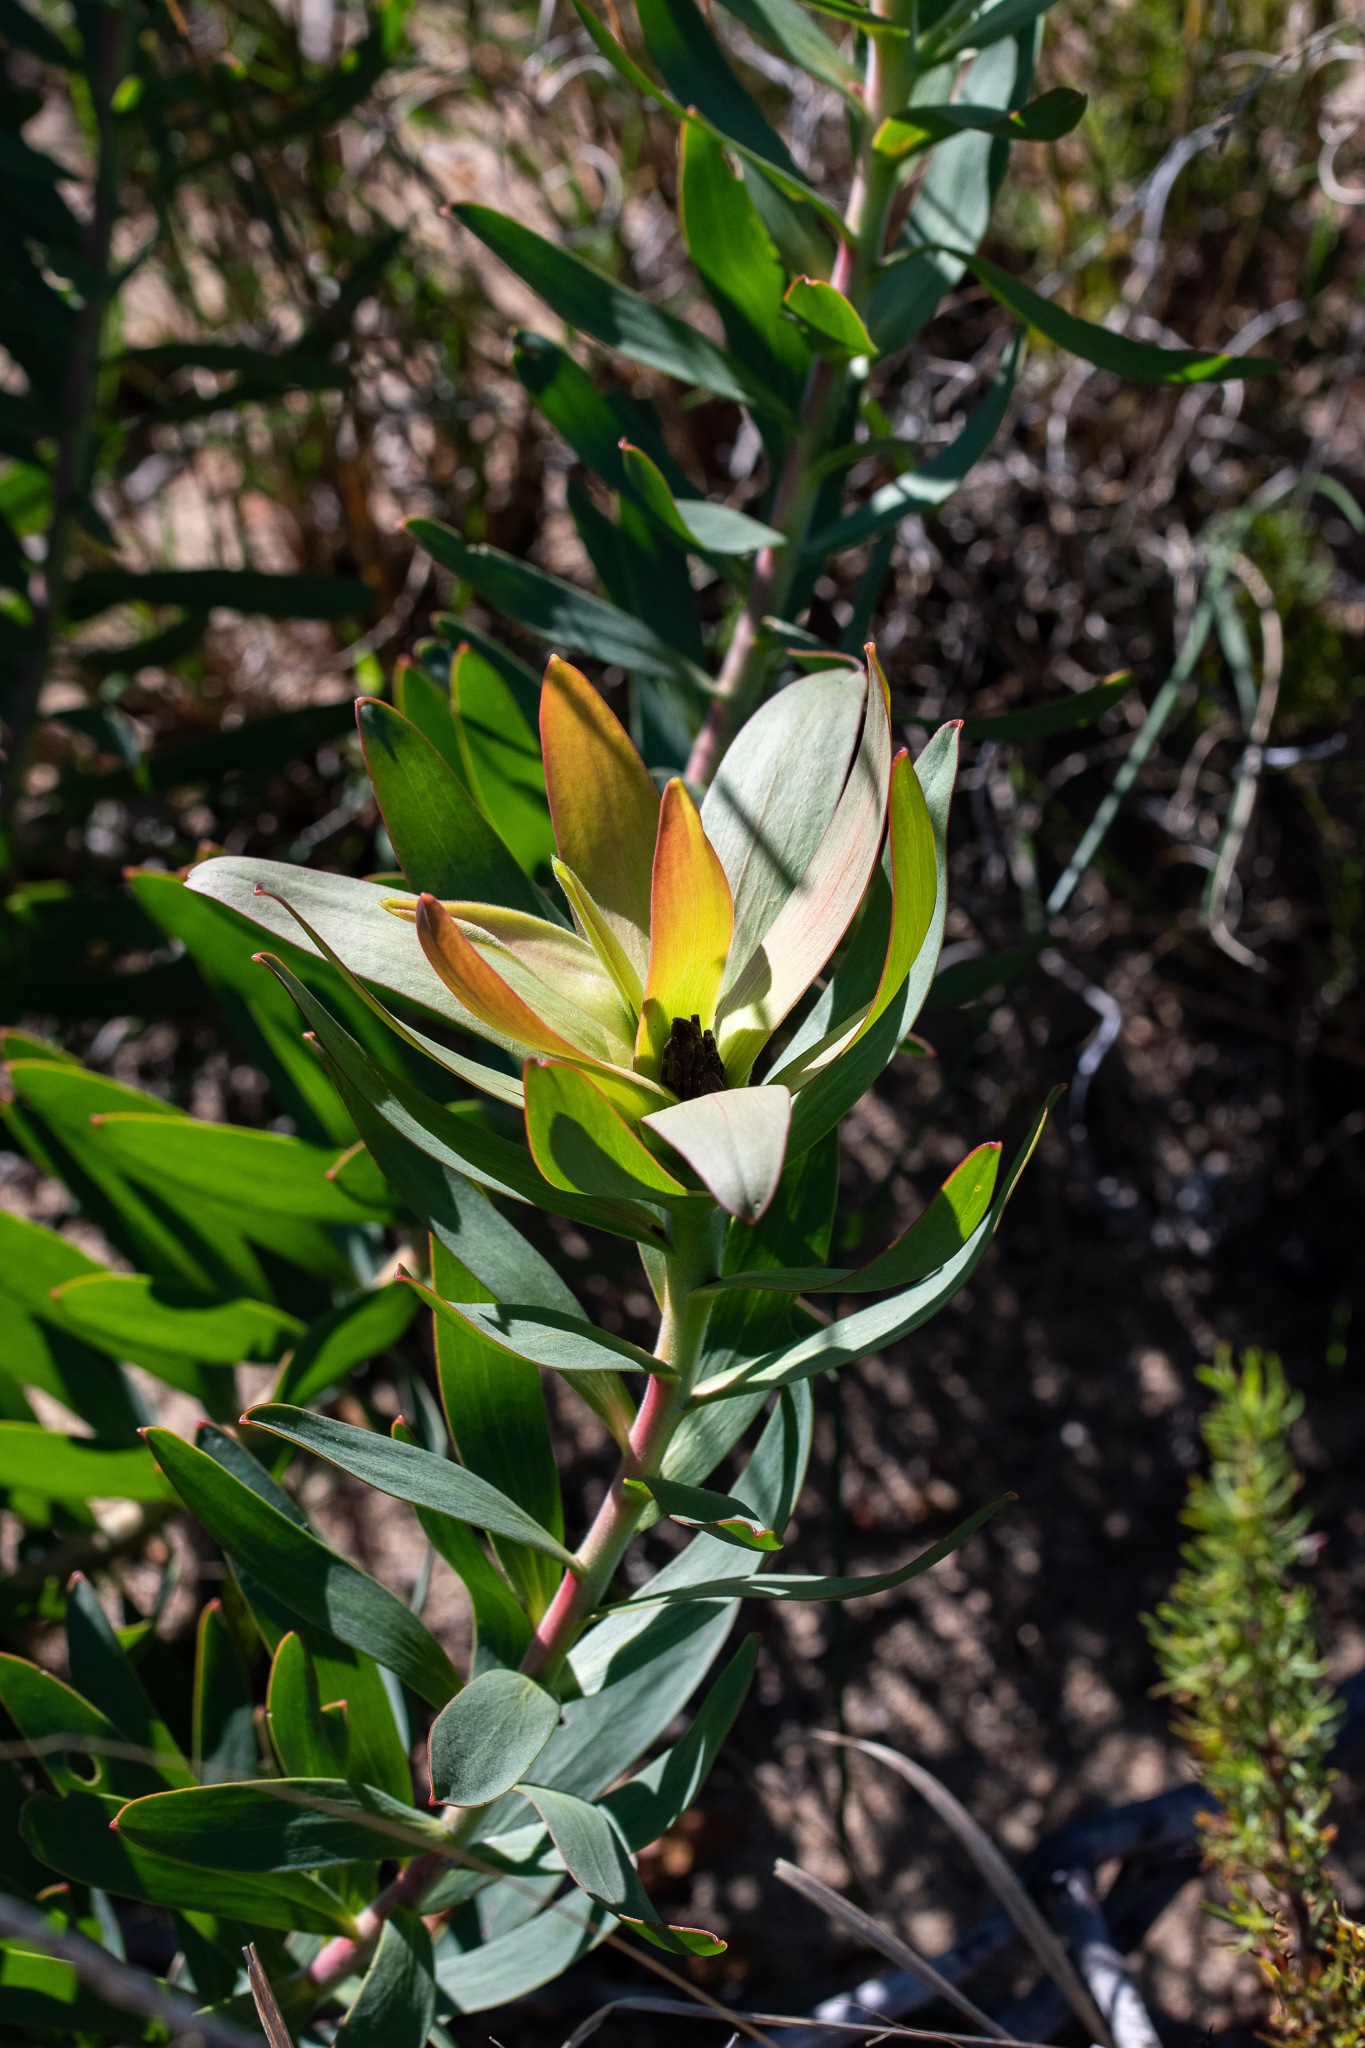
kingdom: Plantae
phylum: Tracheophyta
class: Magnoliopsida
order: Proteales
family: Proteaceae
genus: Leucadendron
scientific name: Leucadendron sessile
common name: Western sunbush
